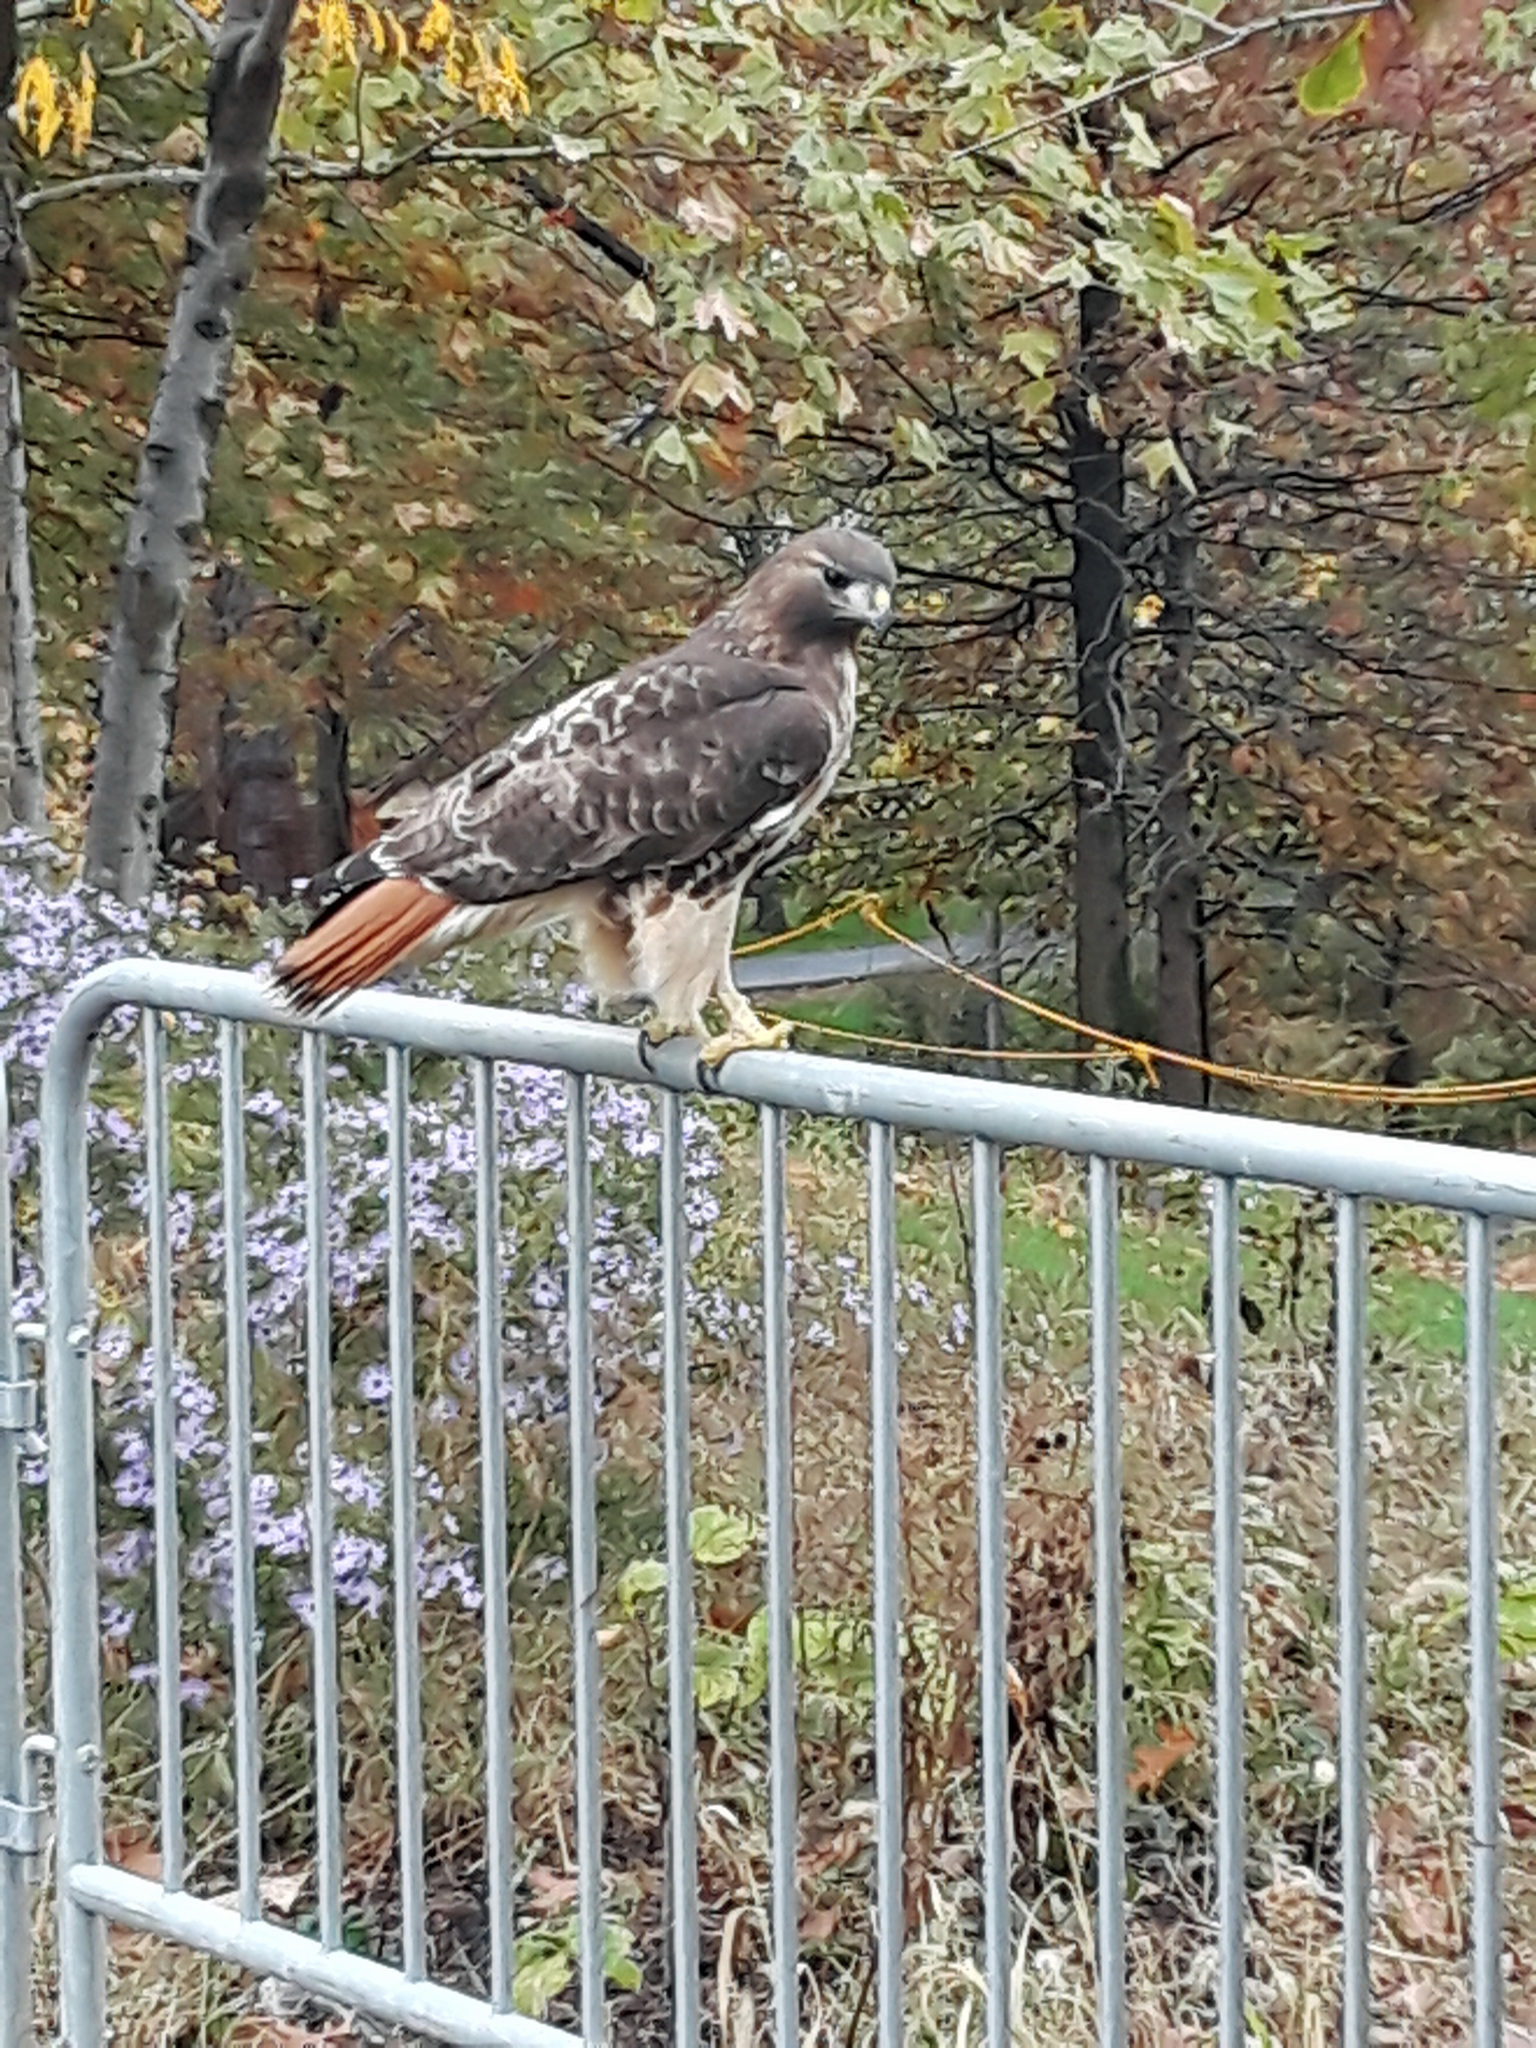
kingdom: Animalia
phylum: Chordata
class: Aves
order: Accipitriformes
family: Accipitridae
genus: Buteo
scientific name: Buteo jamaicensis
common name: Red-tailed hawk
